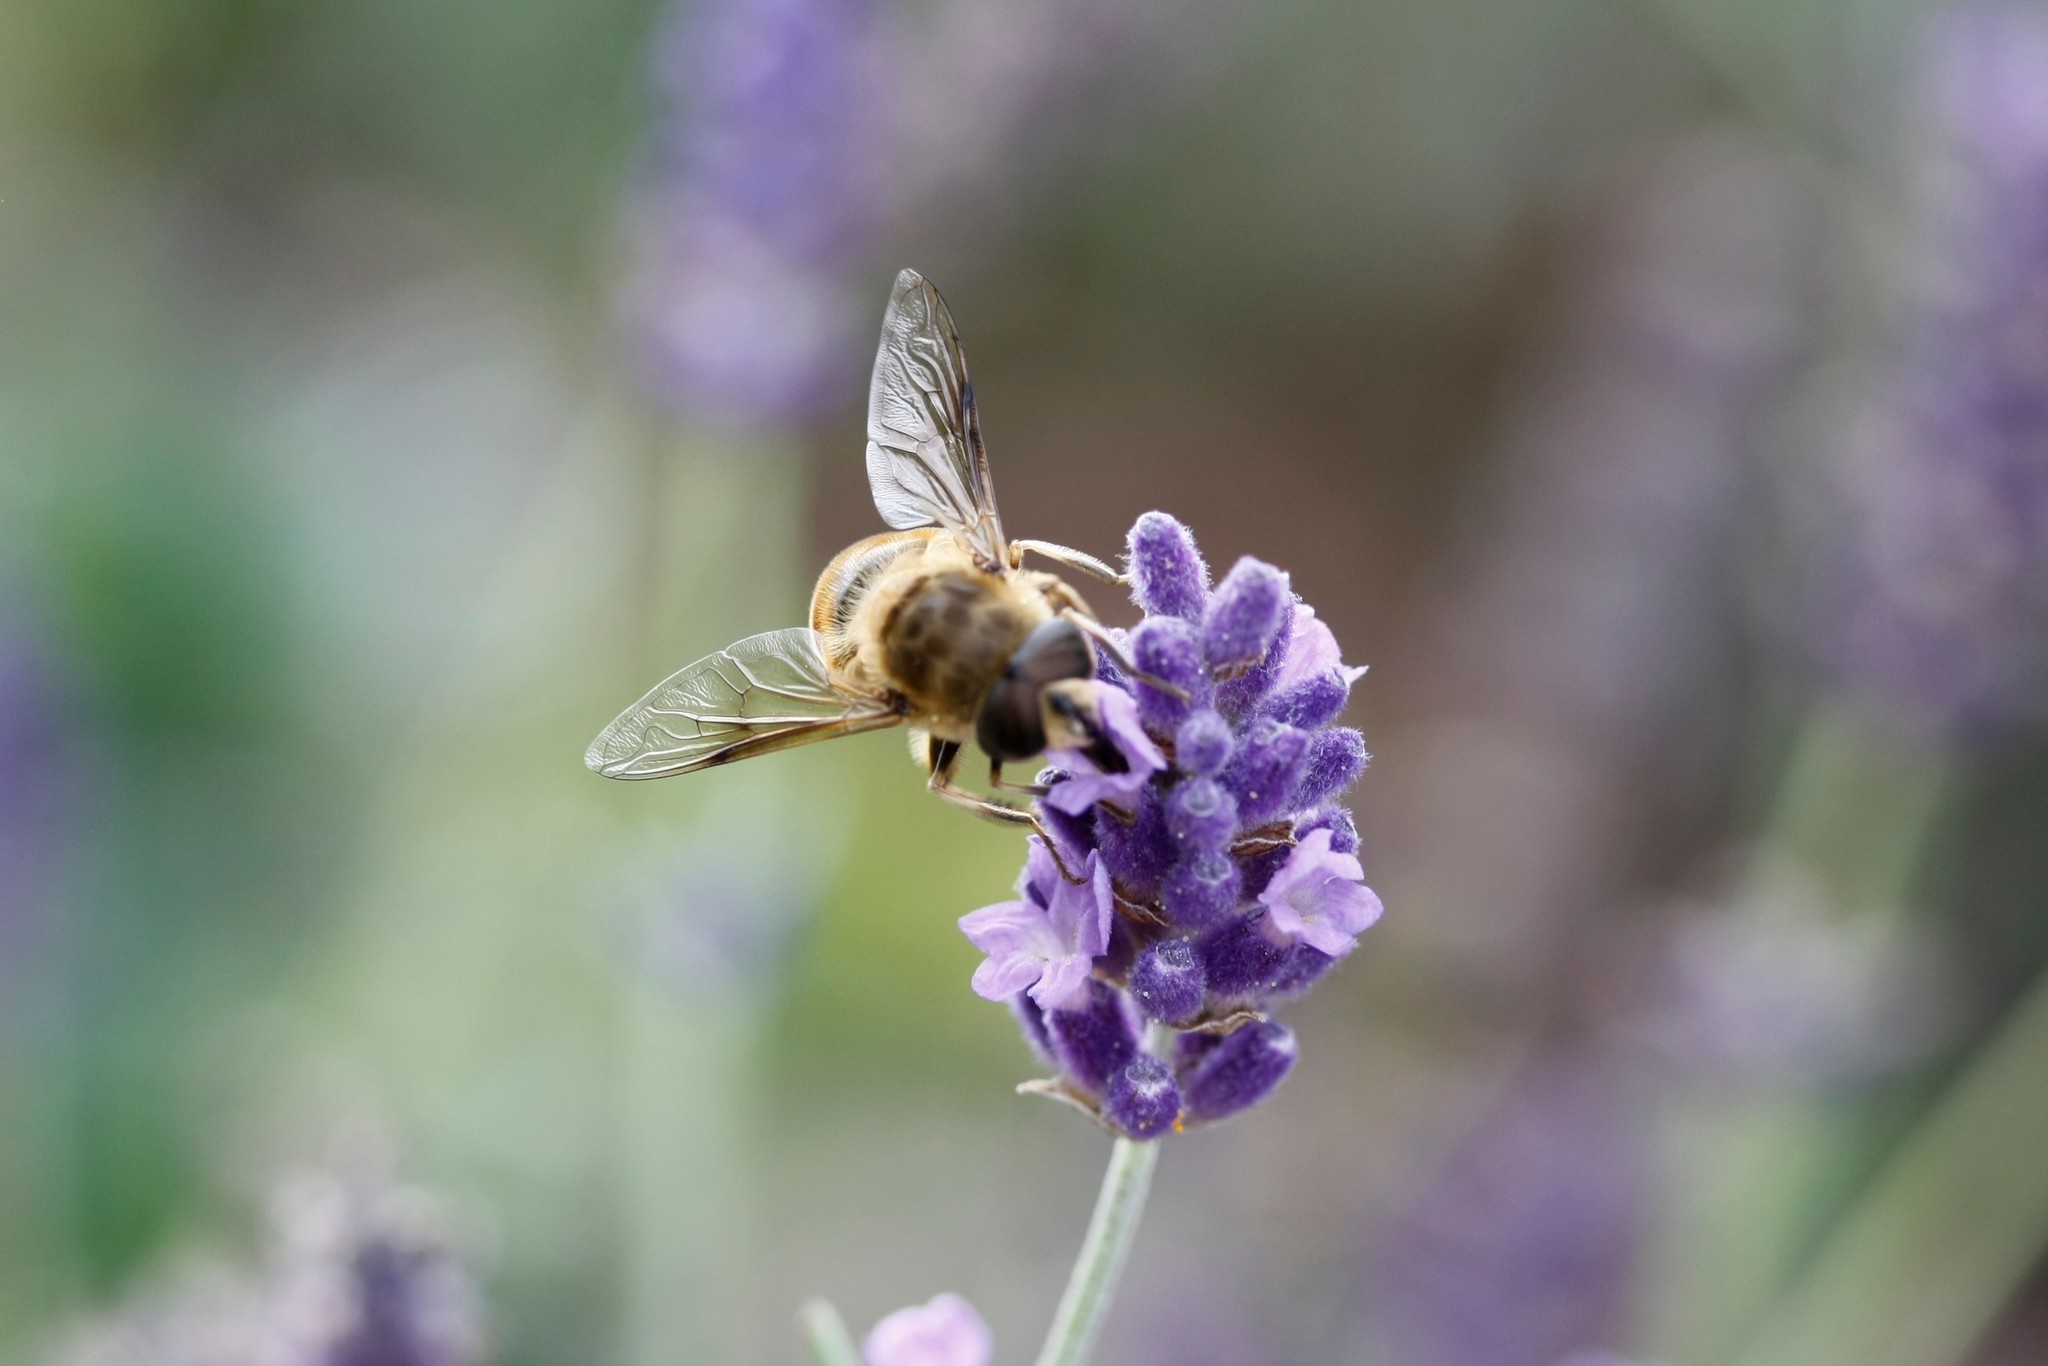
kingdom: Animalia
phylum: Arthropoda
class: Insecta
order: Diptera
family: Syrphidae
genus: Eristalis
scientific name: Eristalis tenax
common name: Drone fly
